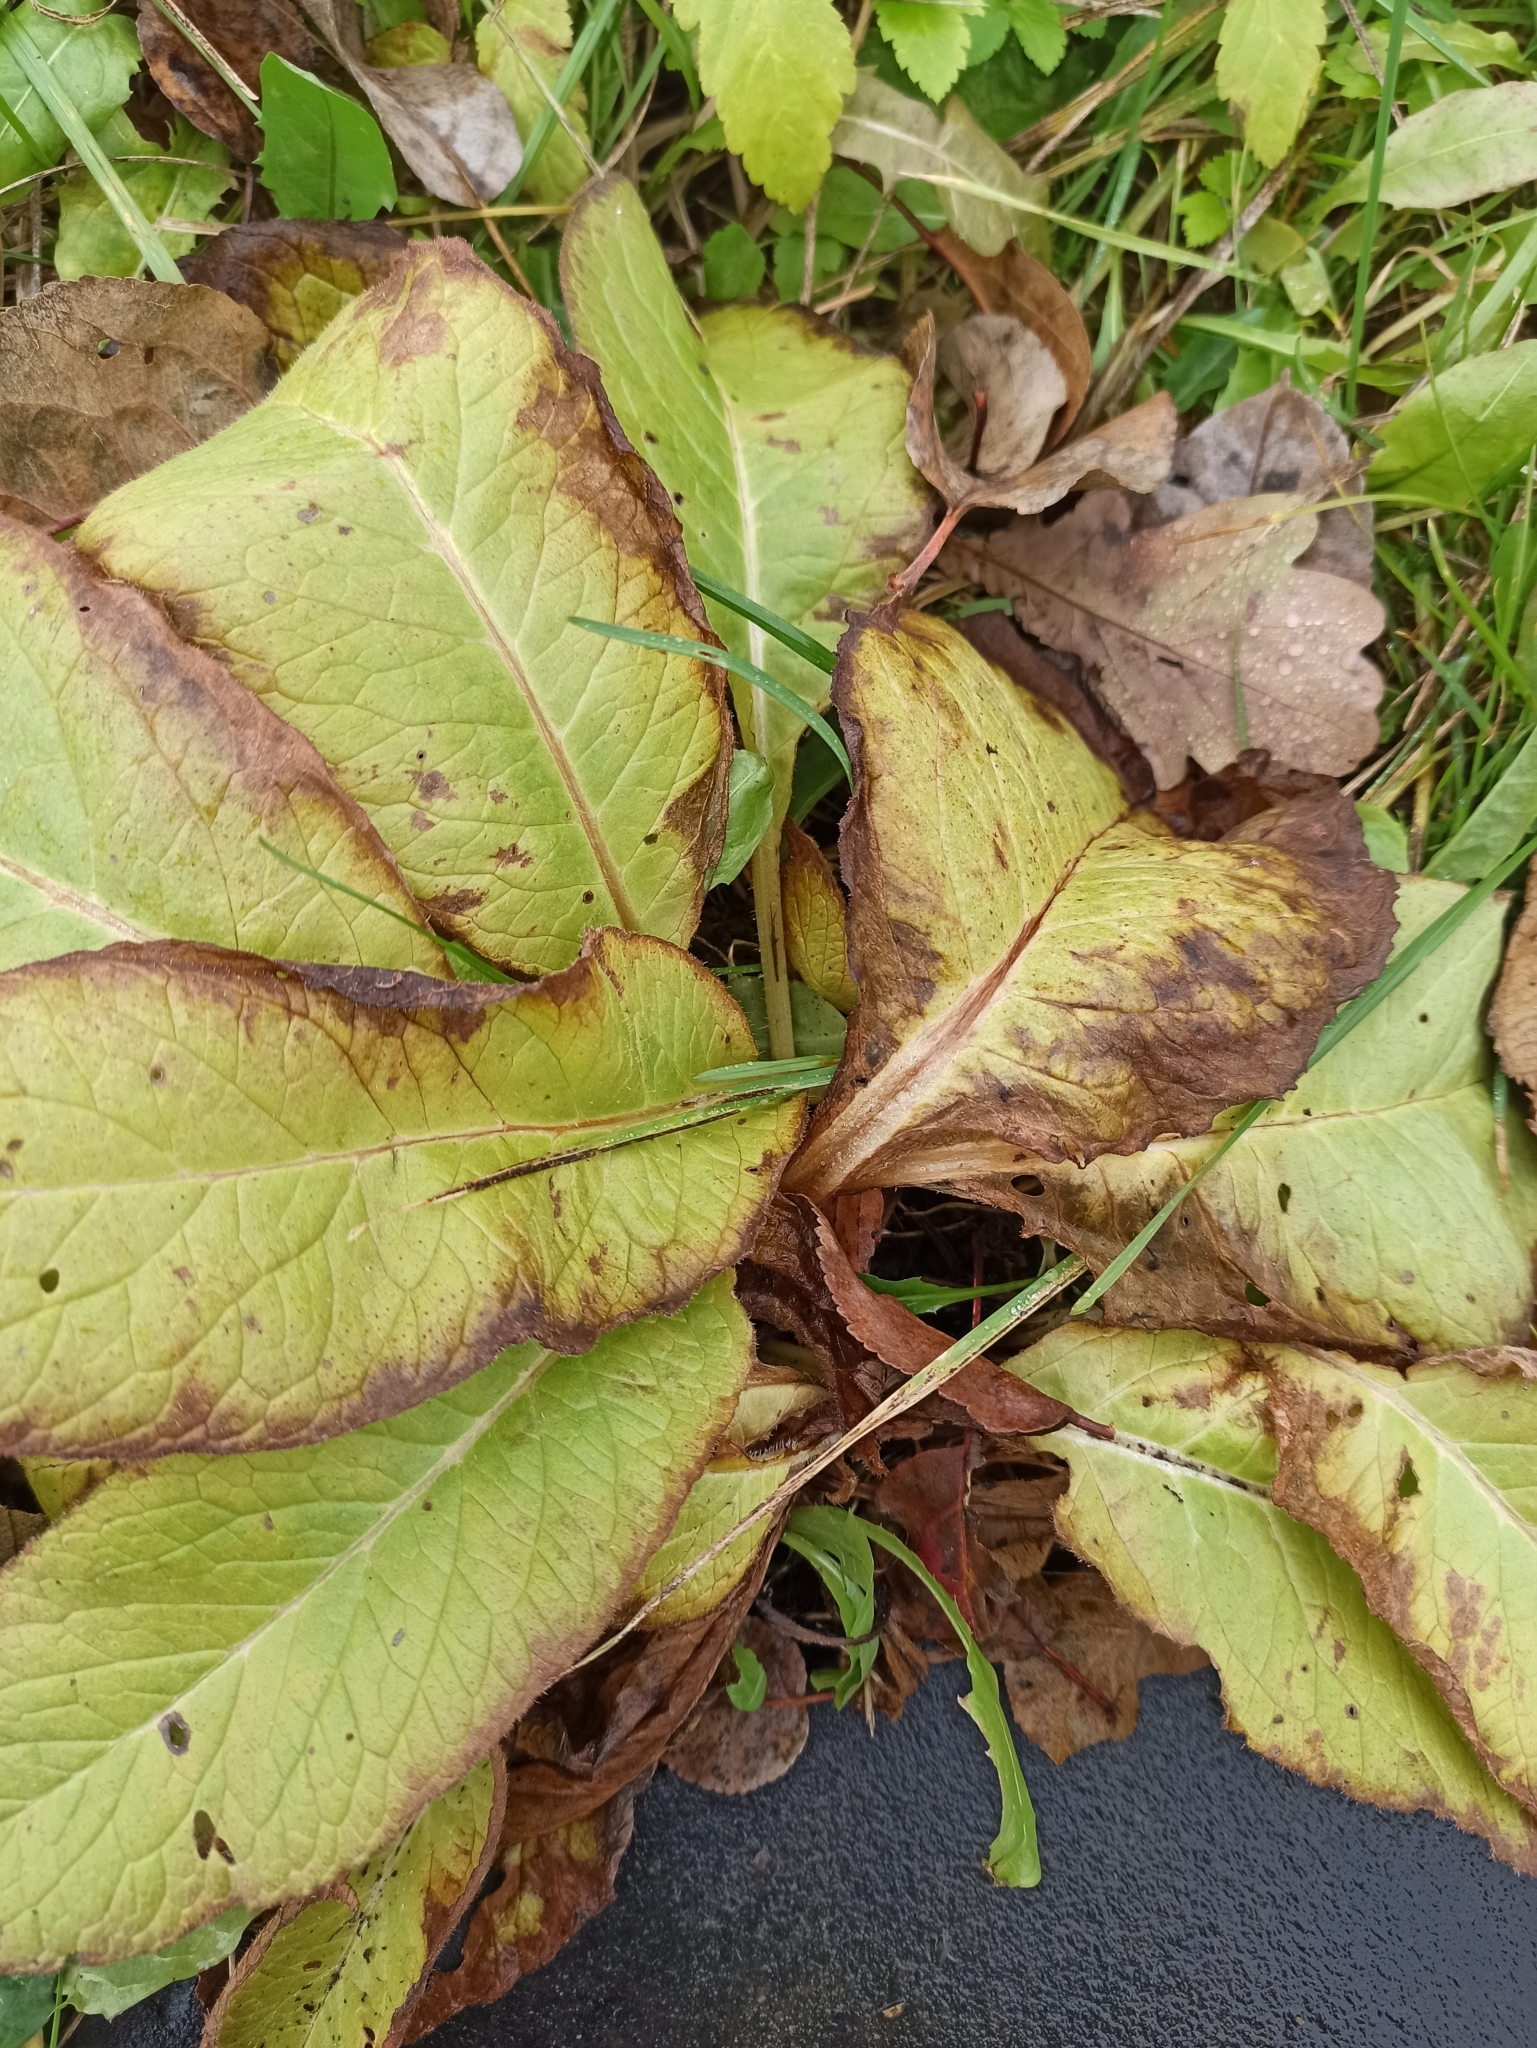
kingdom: Plantae
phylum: Tracheophyta
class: Magnoliopsida
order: Caryophyllales
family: Polygonaceae
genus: Rumex
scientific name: Rumex obtusifolius
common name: Bitter dock
